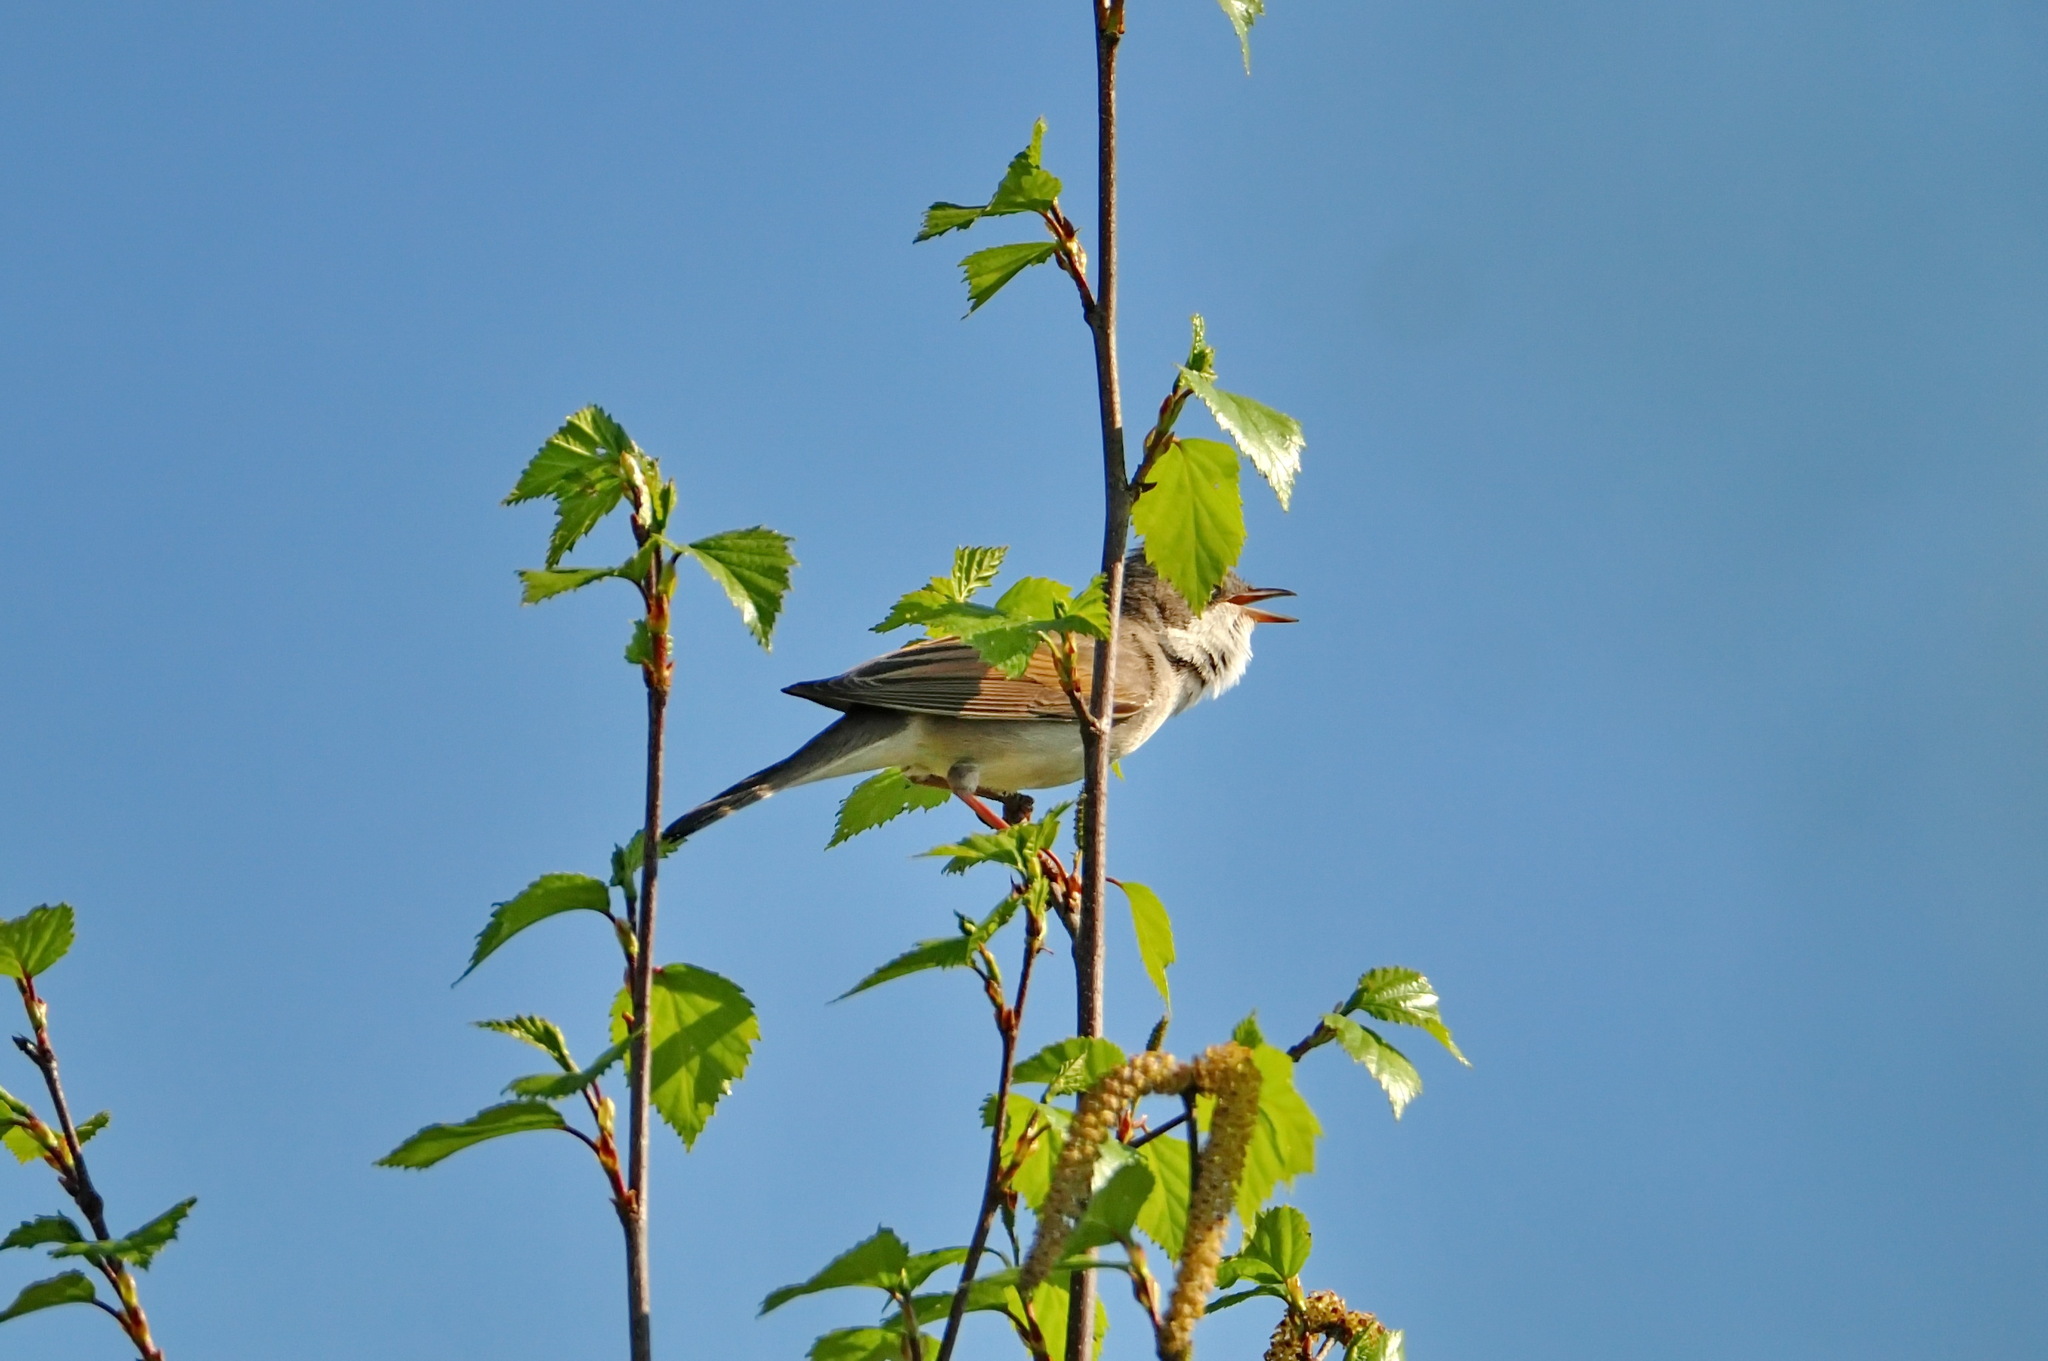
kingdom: Animalia
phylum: Chordata
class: Aves
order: Passeriformes
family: Sylviidae
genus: Sylvia
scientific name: Sylvia communis
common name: Common whitethroat
